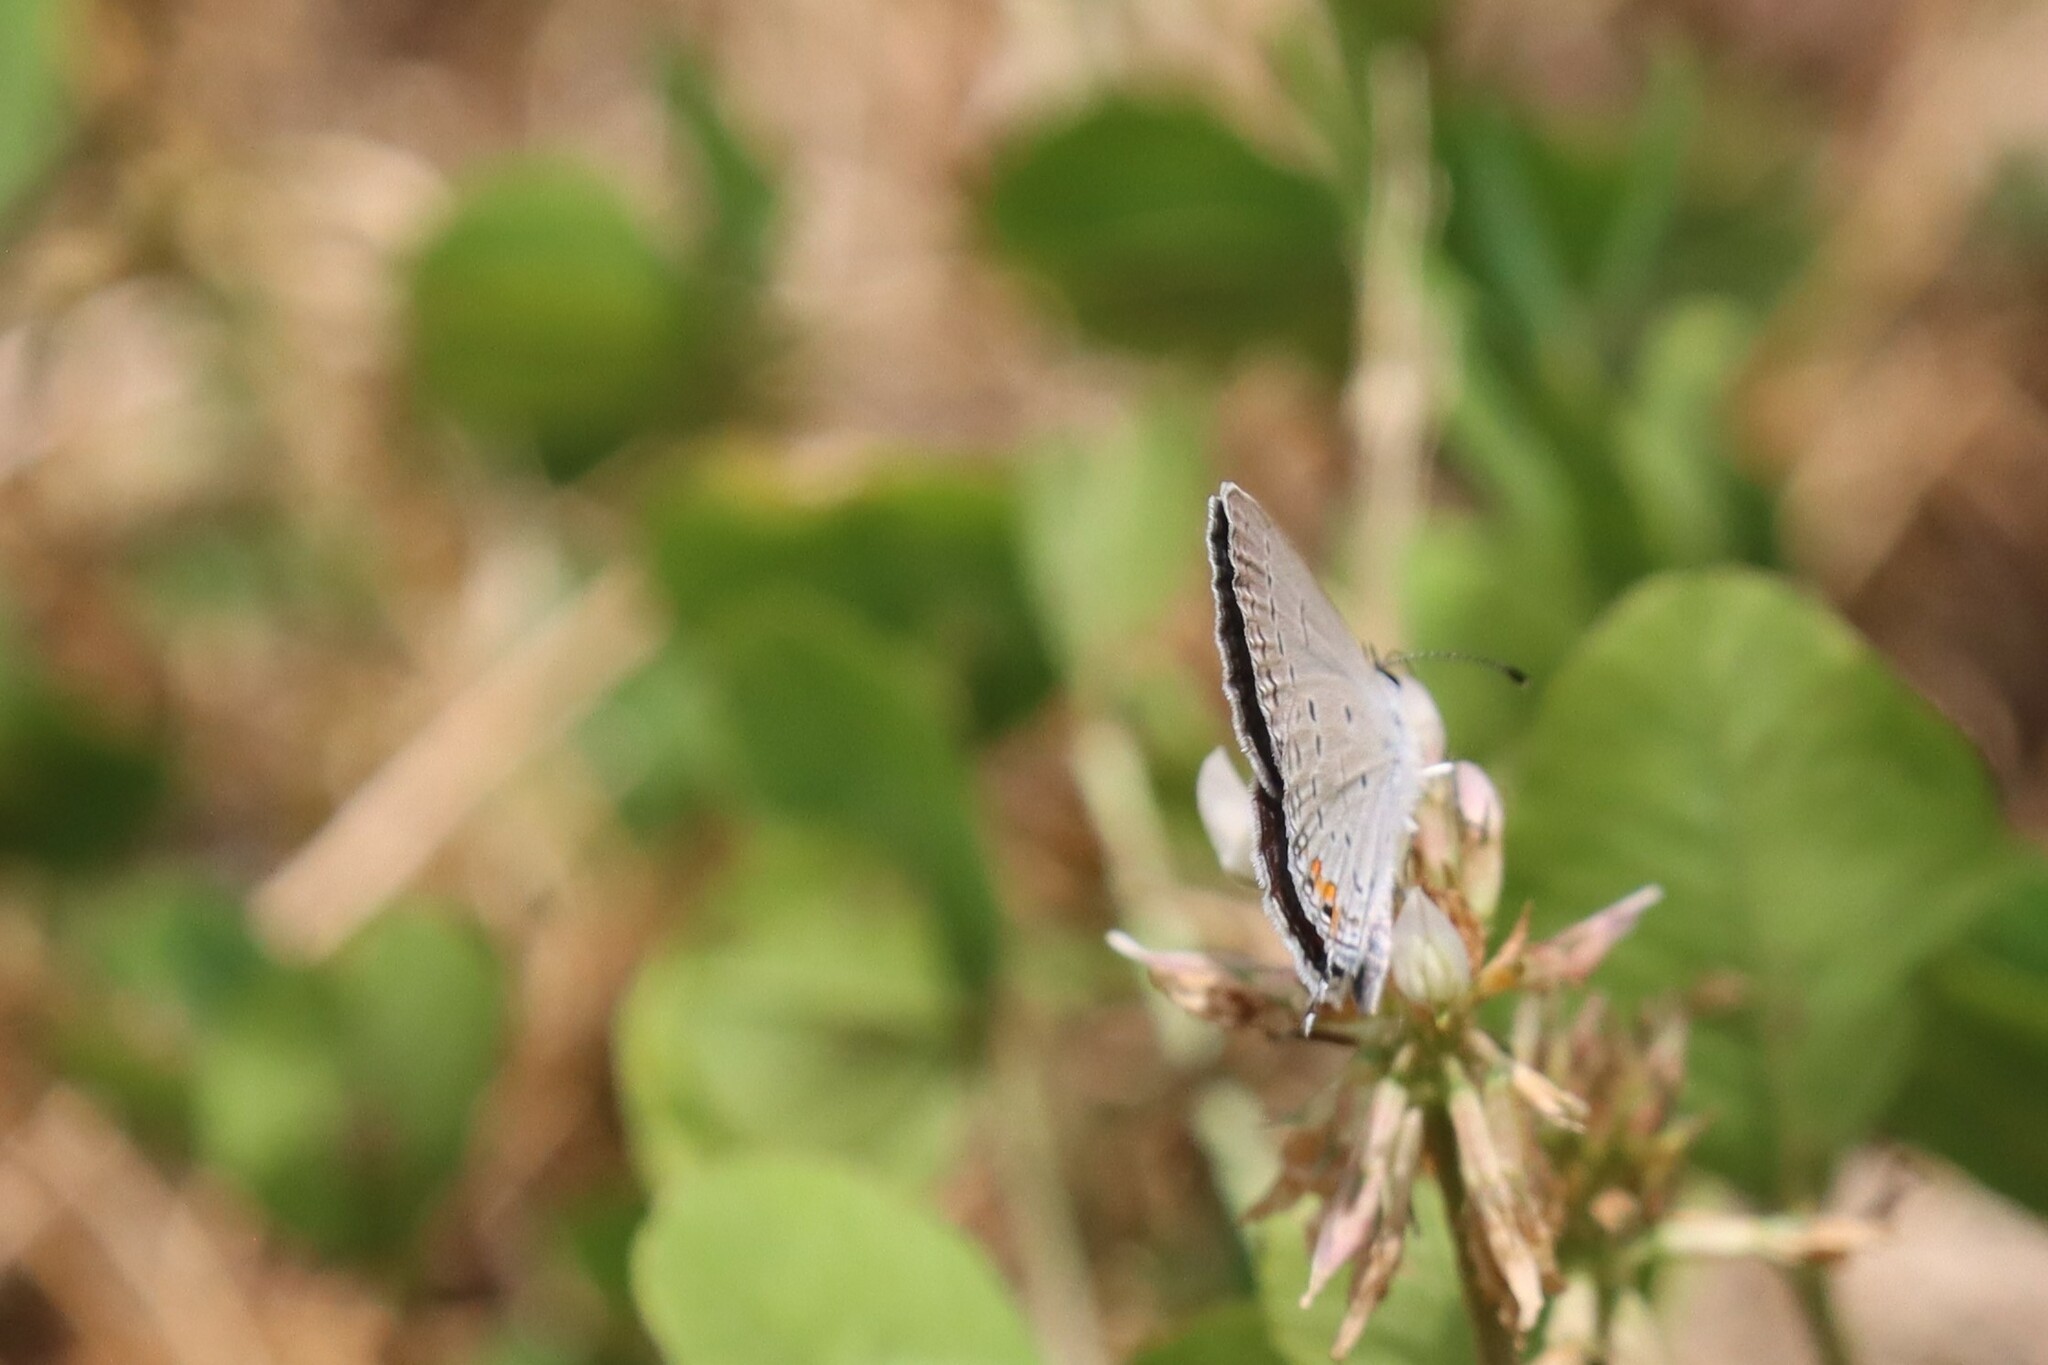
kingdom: Animalia
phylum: Arthropoda
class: Insecta
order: Lepidoptera
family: Lycaenidae
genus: Elkalyce
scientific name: Elkalyce comyntas
